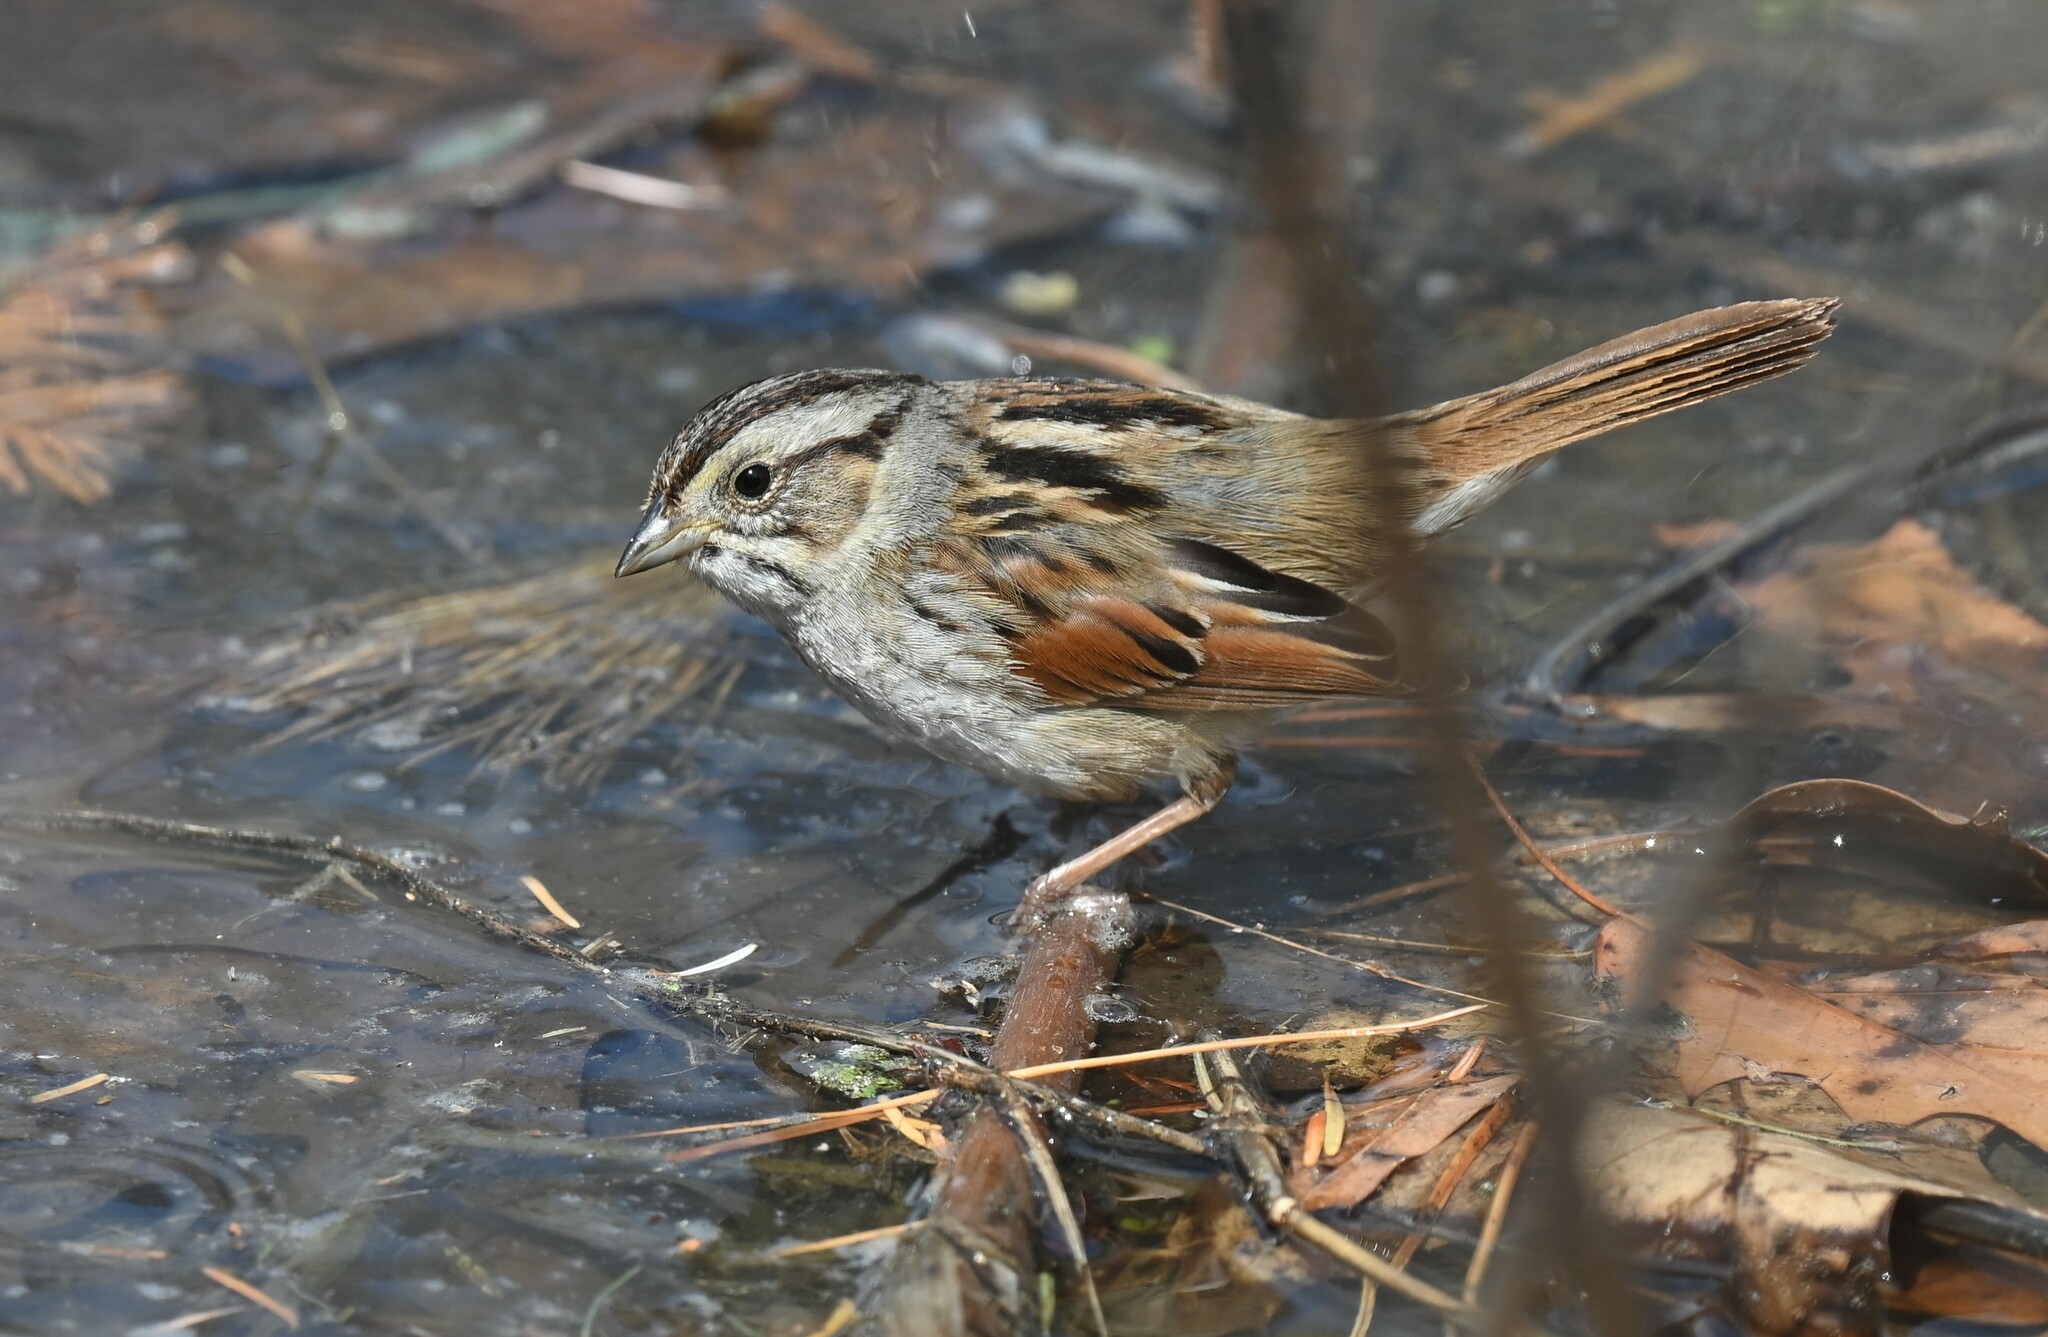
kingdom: Animalia
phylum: Chordata
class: Aves
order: Passeriformes
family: Passerellidae
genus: Melospiza
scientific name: Melospiza georgiana
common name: Swamp sparrow
